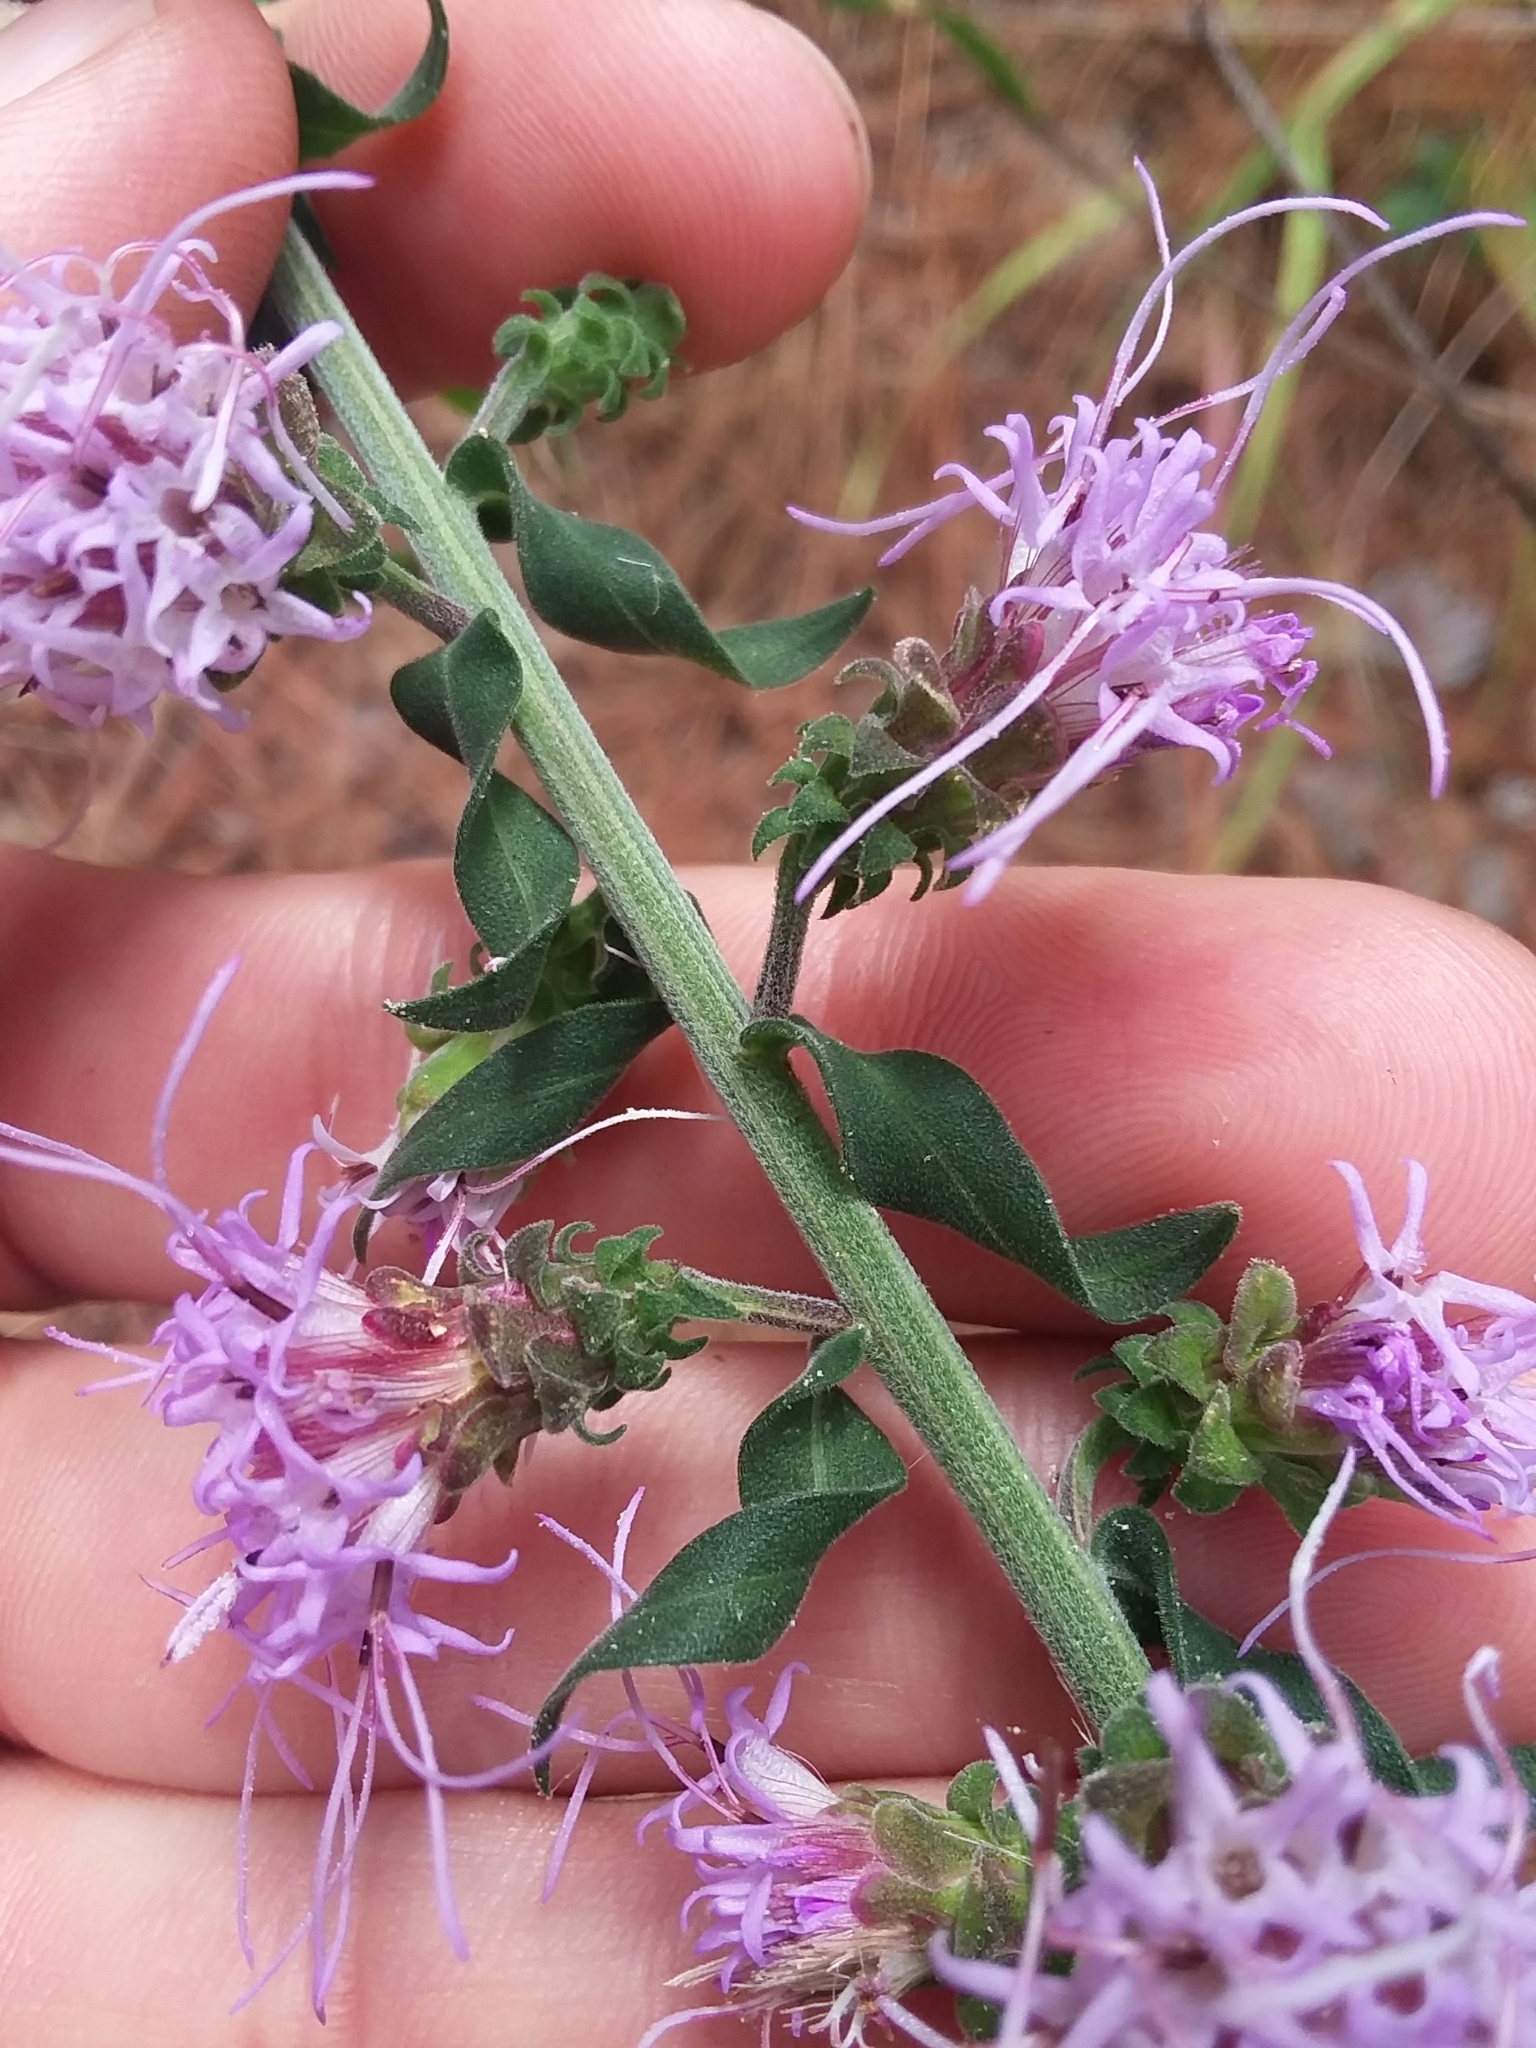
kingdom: Plantae
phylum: Tracheophyta
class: Magnoliopsida
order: Asterales
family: Asteraceae
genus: Liatris
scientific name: Liatris squarrulosa
